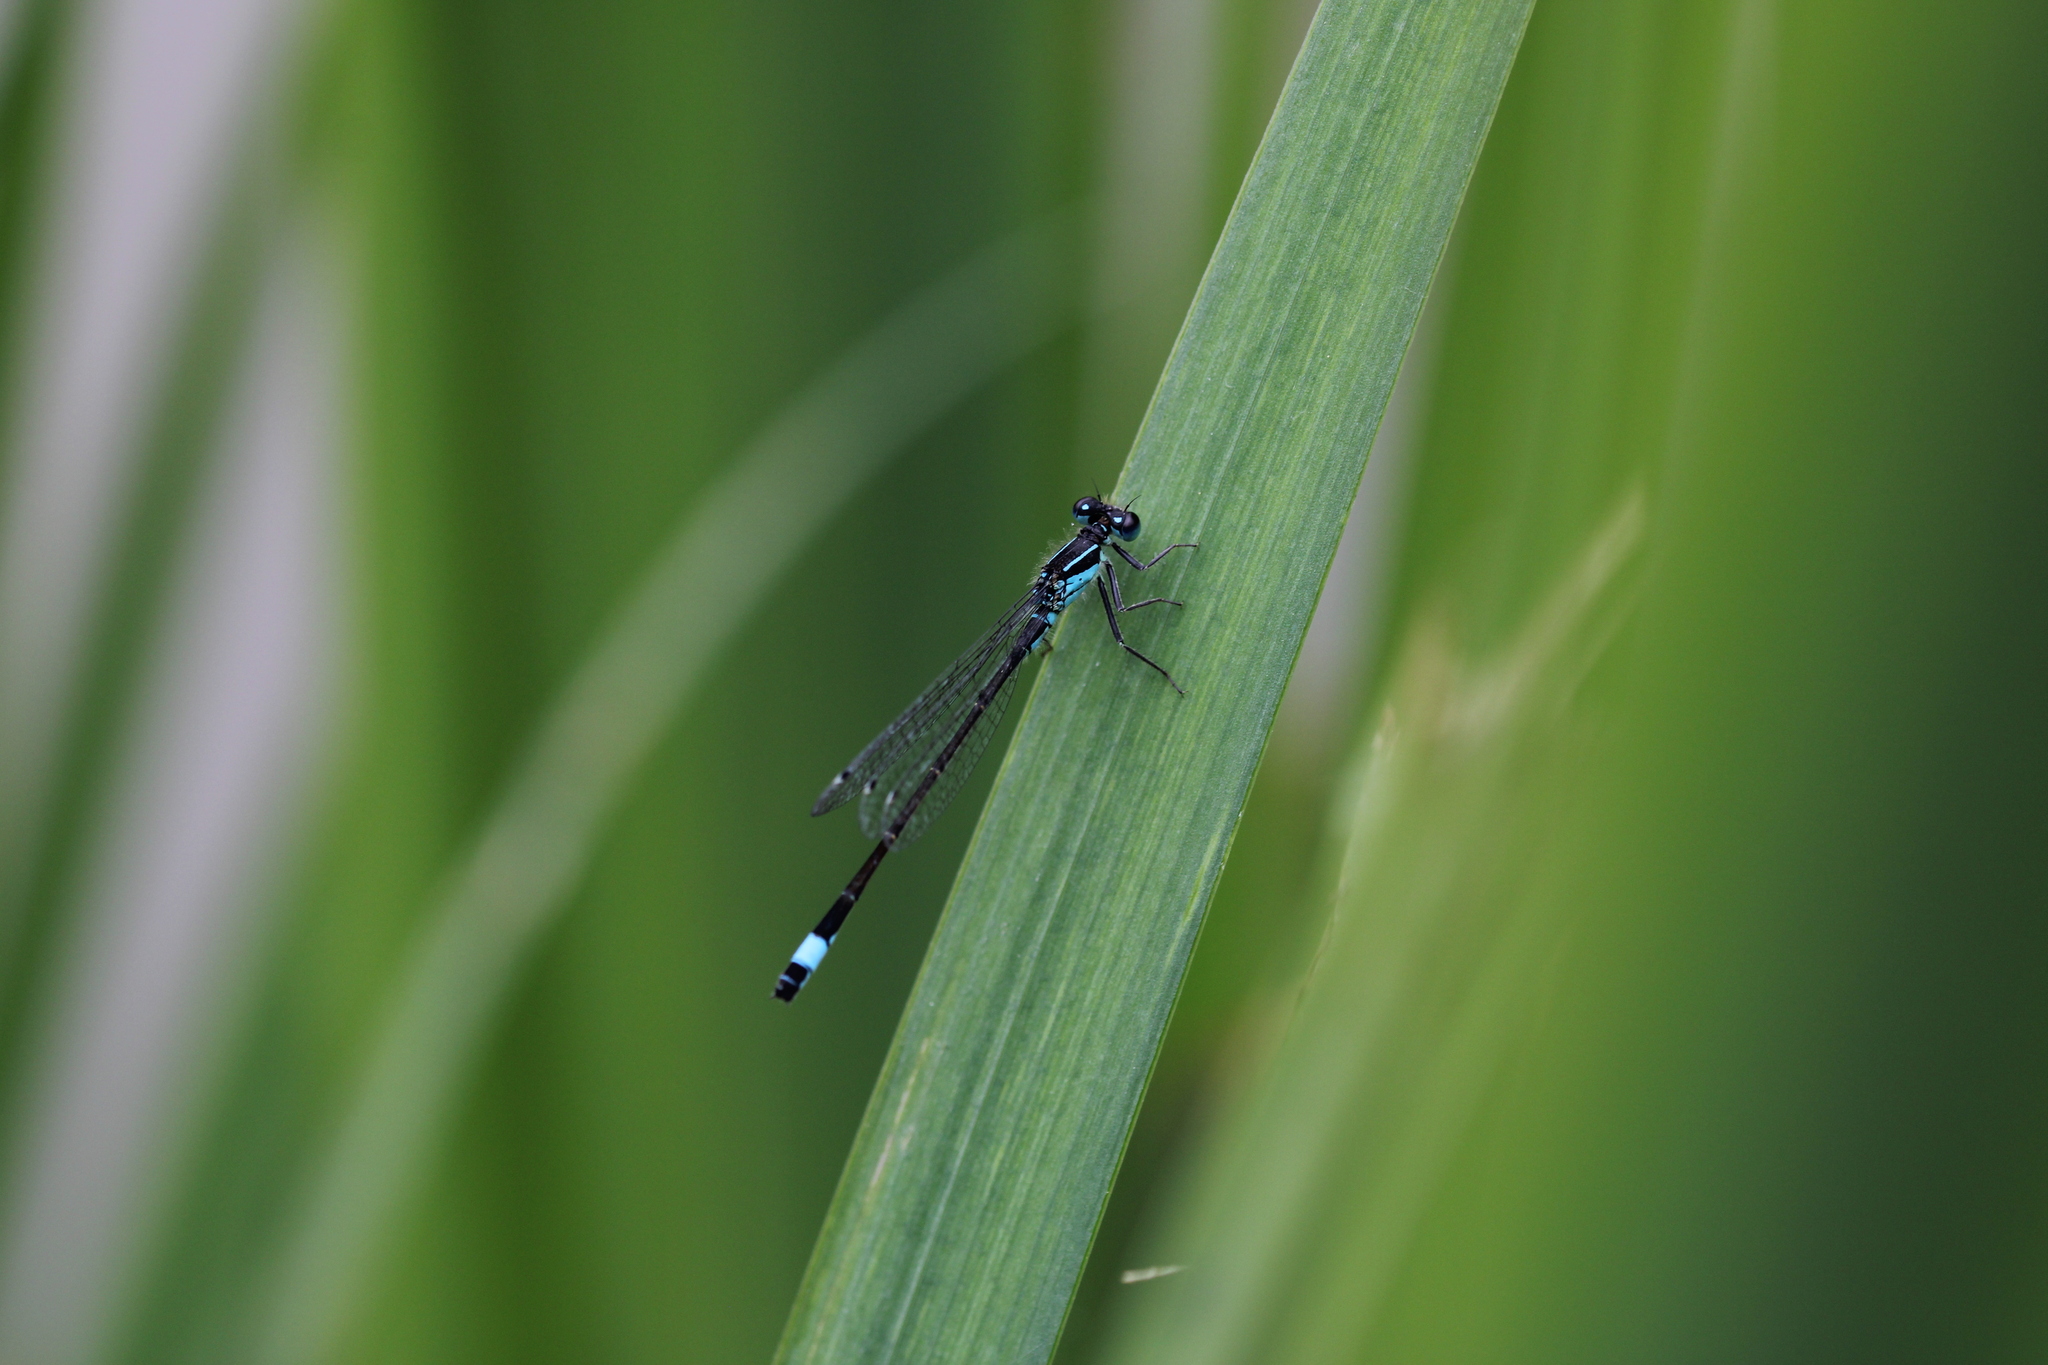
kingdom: Animalia
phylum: Arthropoda
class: Insecta
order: Odonata
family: Coenagrionidae
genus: Ischnura
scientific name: Ischnura elegans
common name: Blue-tailed damselfly
